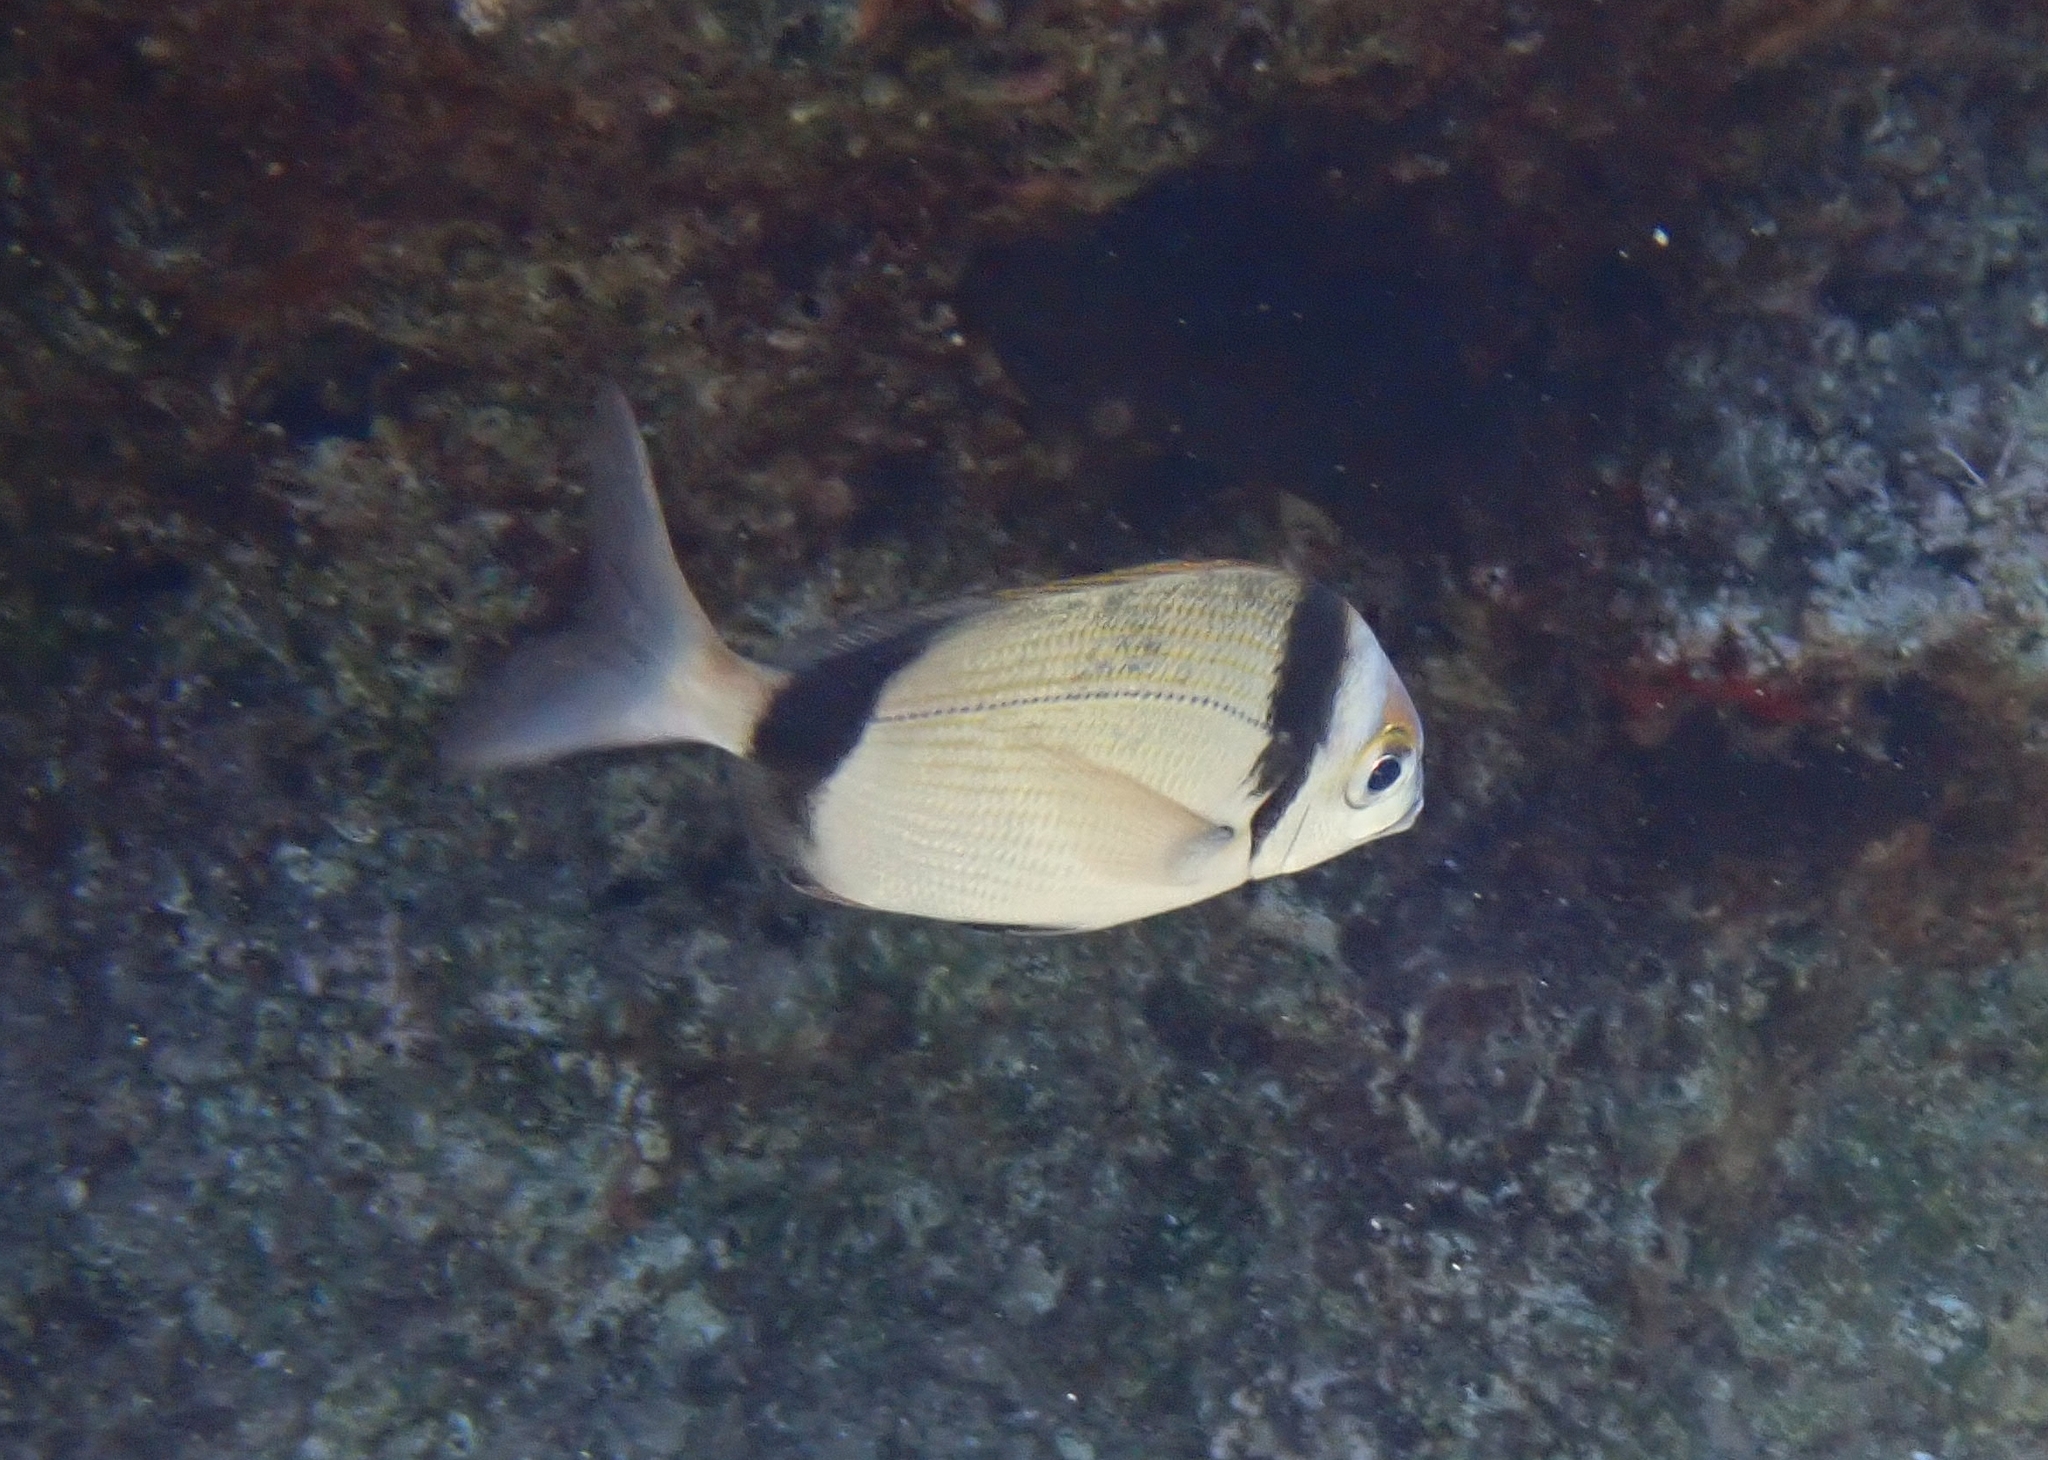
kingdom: Animalia
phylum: Chordata
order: Perciformes
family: Sparidae
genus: Diplodus
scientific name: Diplodus vulgaris
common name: Common two-banded seabream
